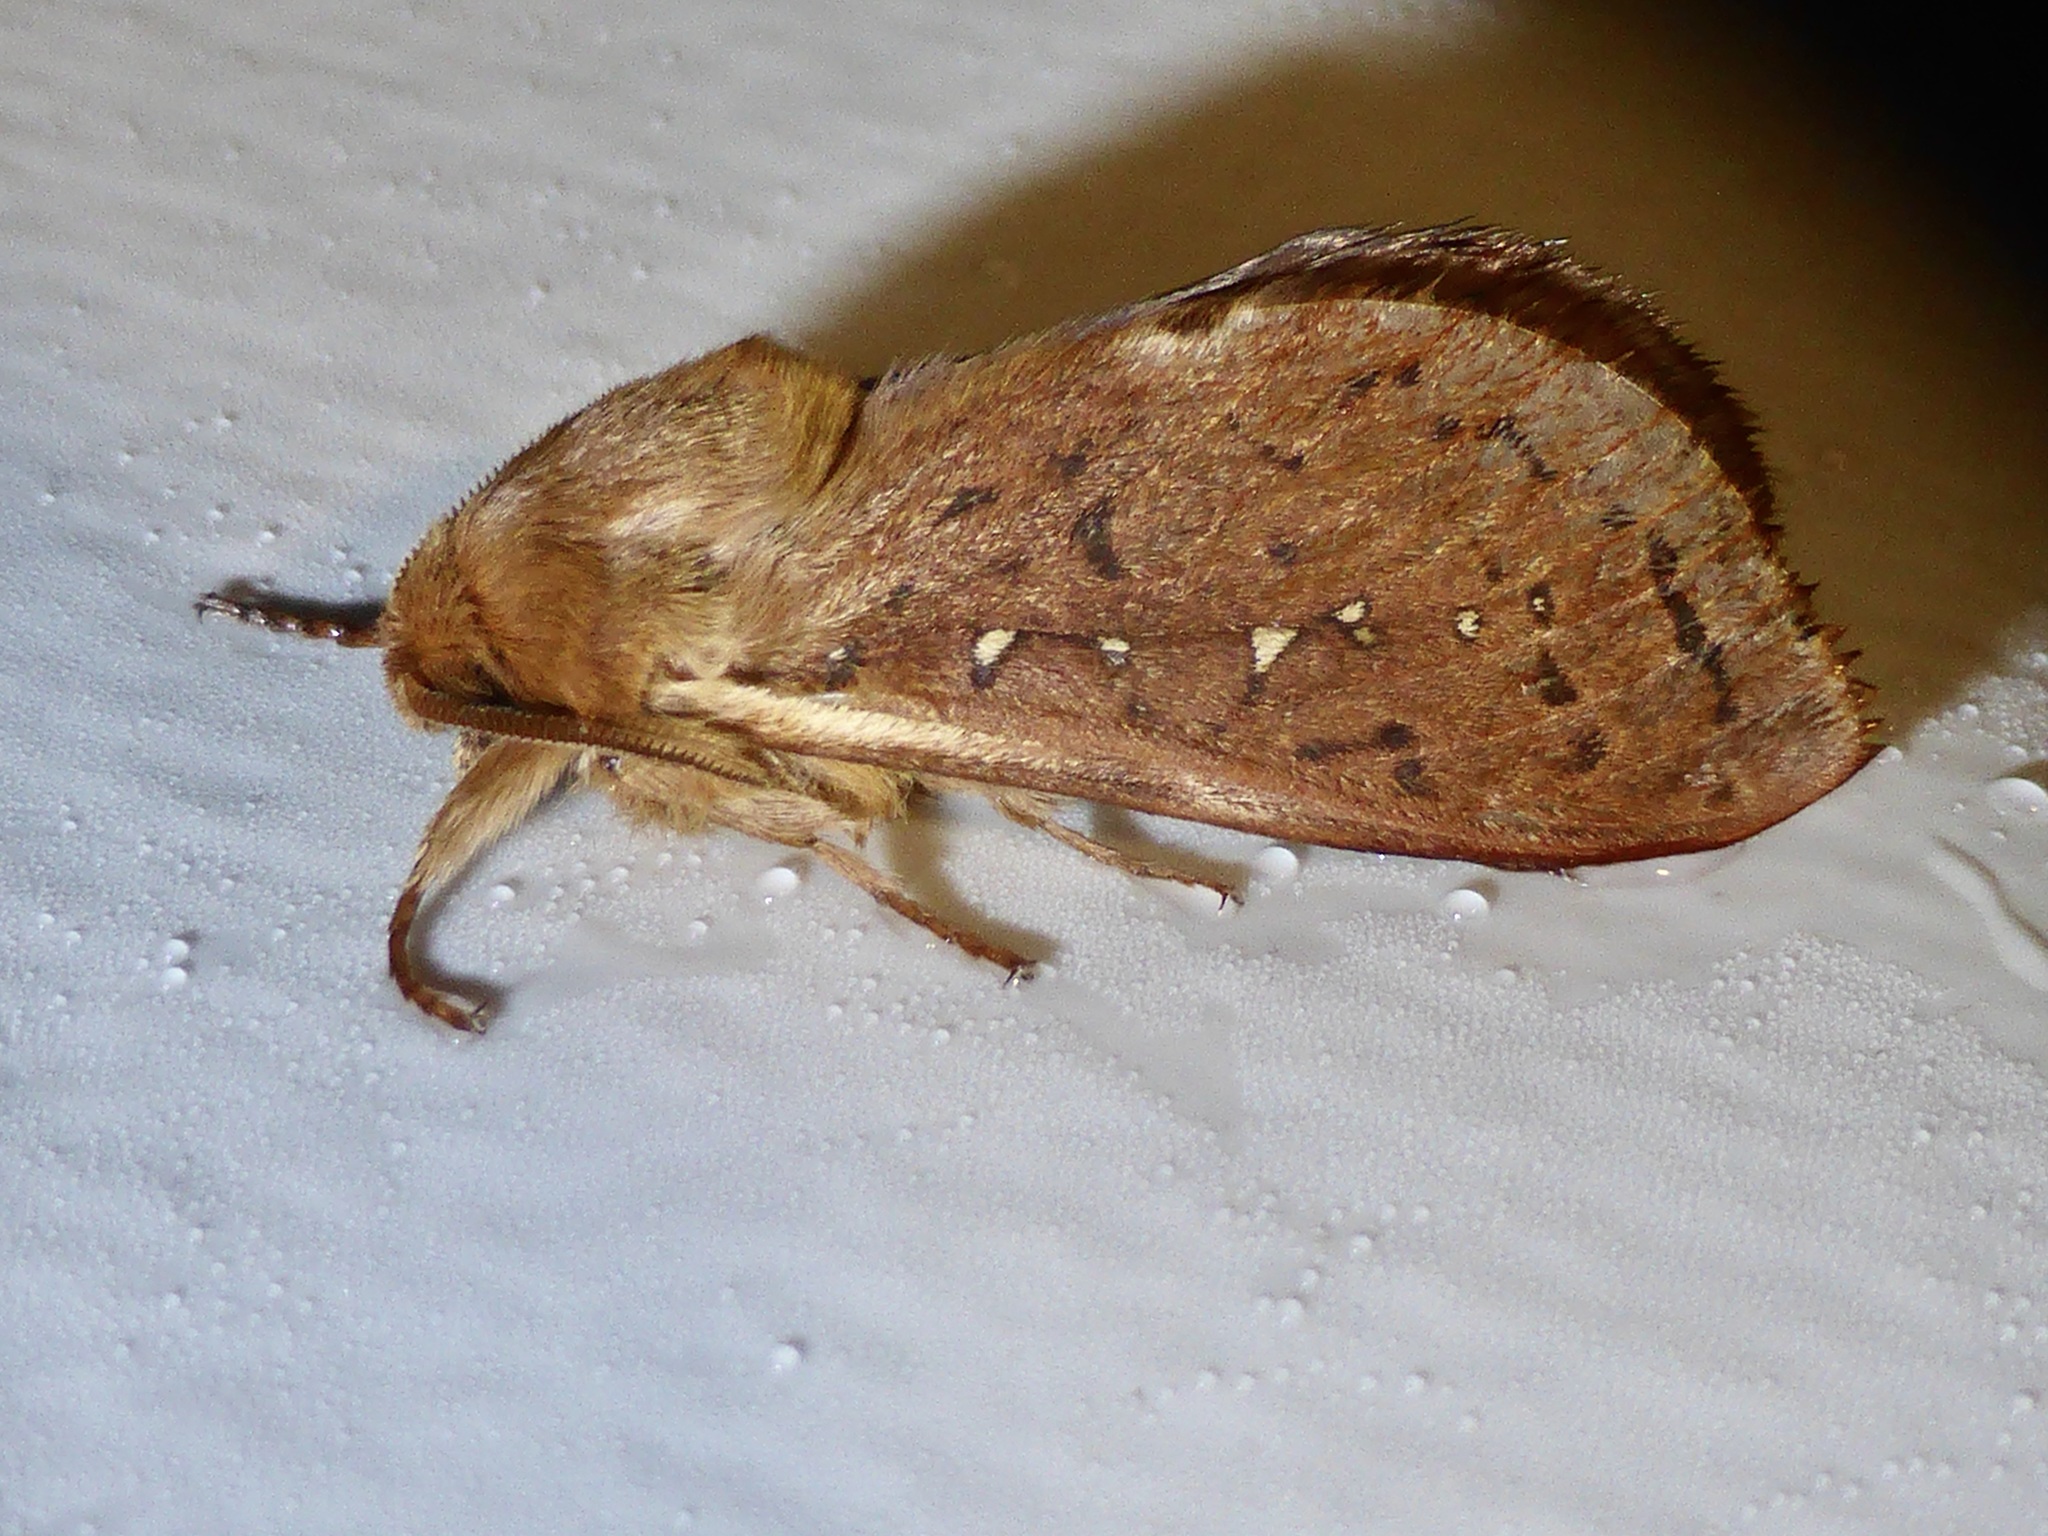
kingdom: Animalia
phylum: Arthropoda
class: Insecta
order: Lepidoptera
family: Hepialidae
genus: Wiseana
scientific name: Wiseana copularis
